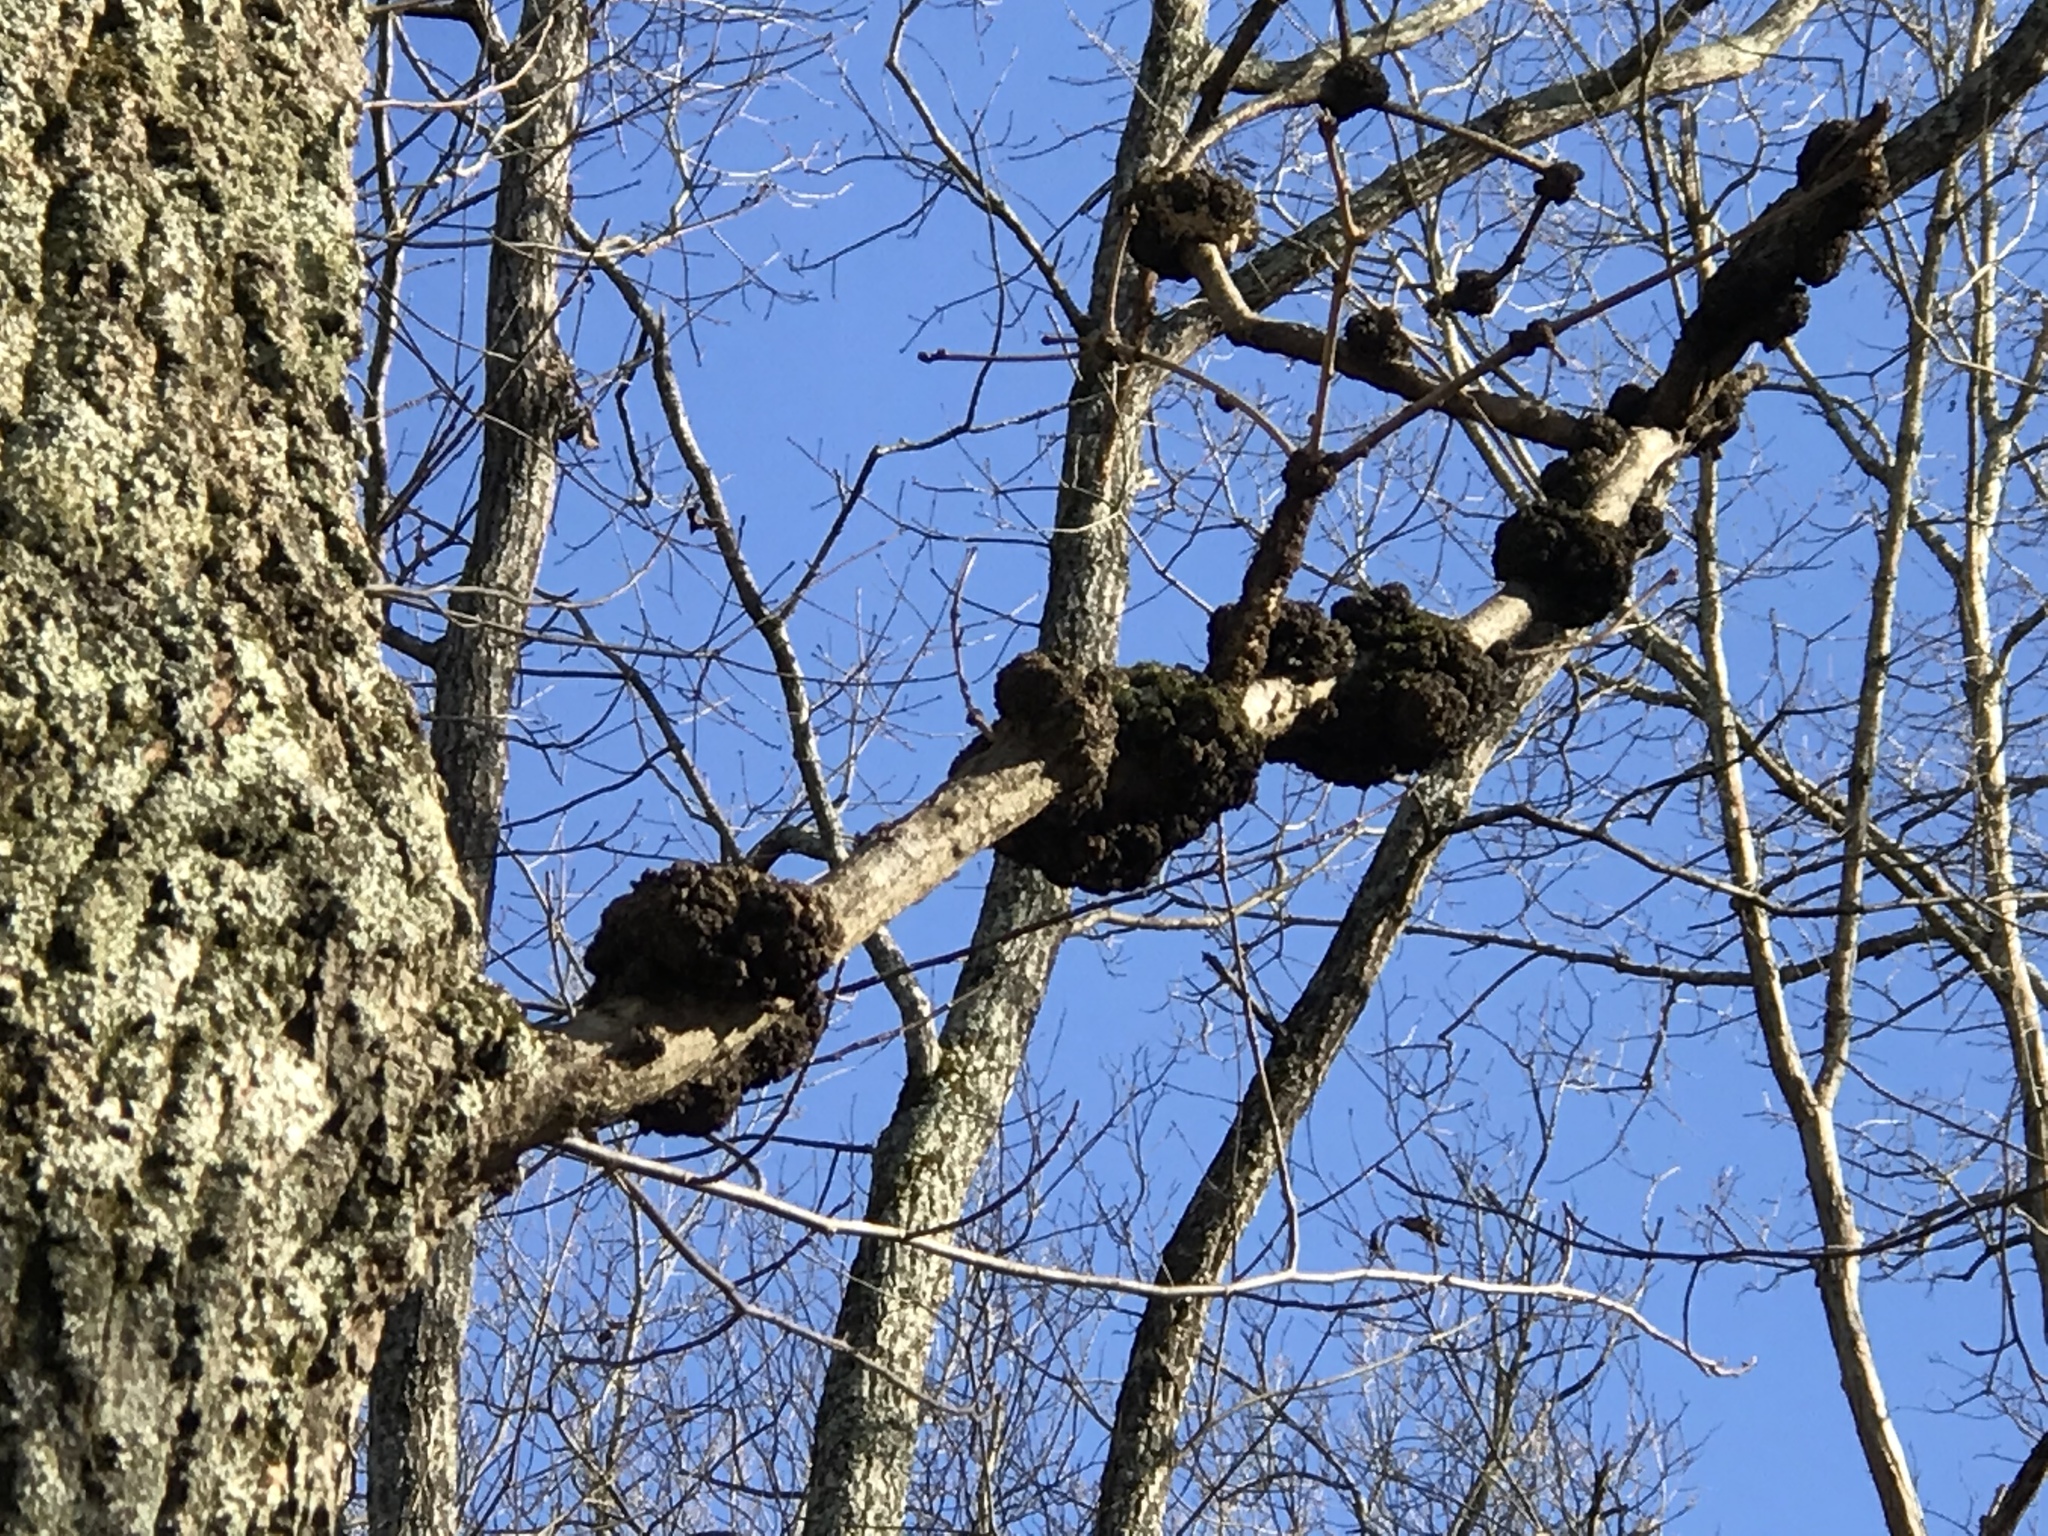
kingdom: Fungi
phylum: Ascomycota
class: Dothideomycetes
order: Venturiales
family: Venturiaceae
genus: Apiosporina
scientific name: Apiosporina morbosa
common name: Black knot
